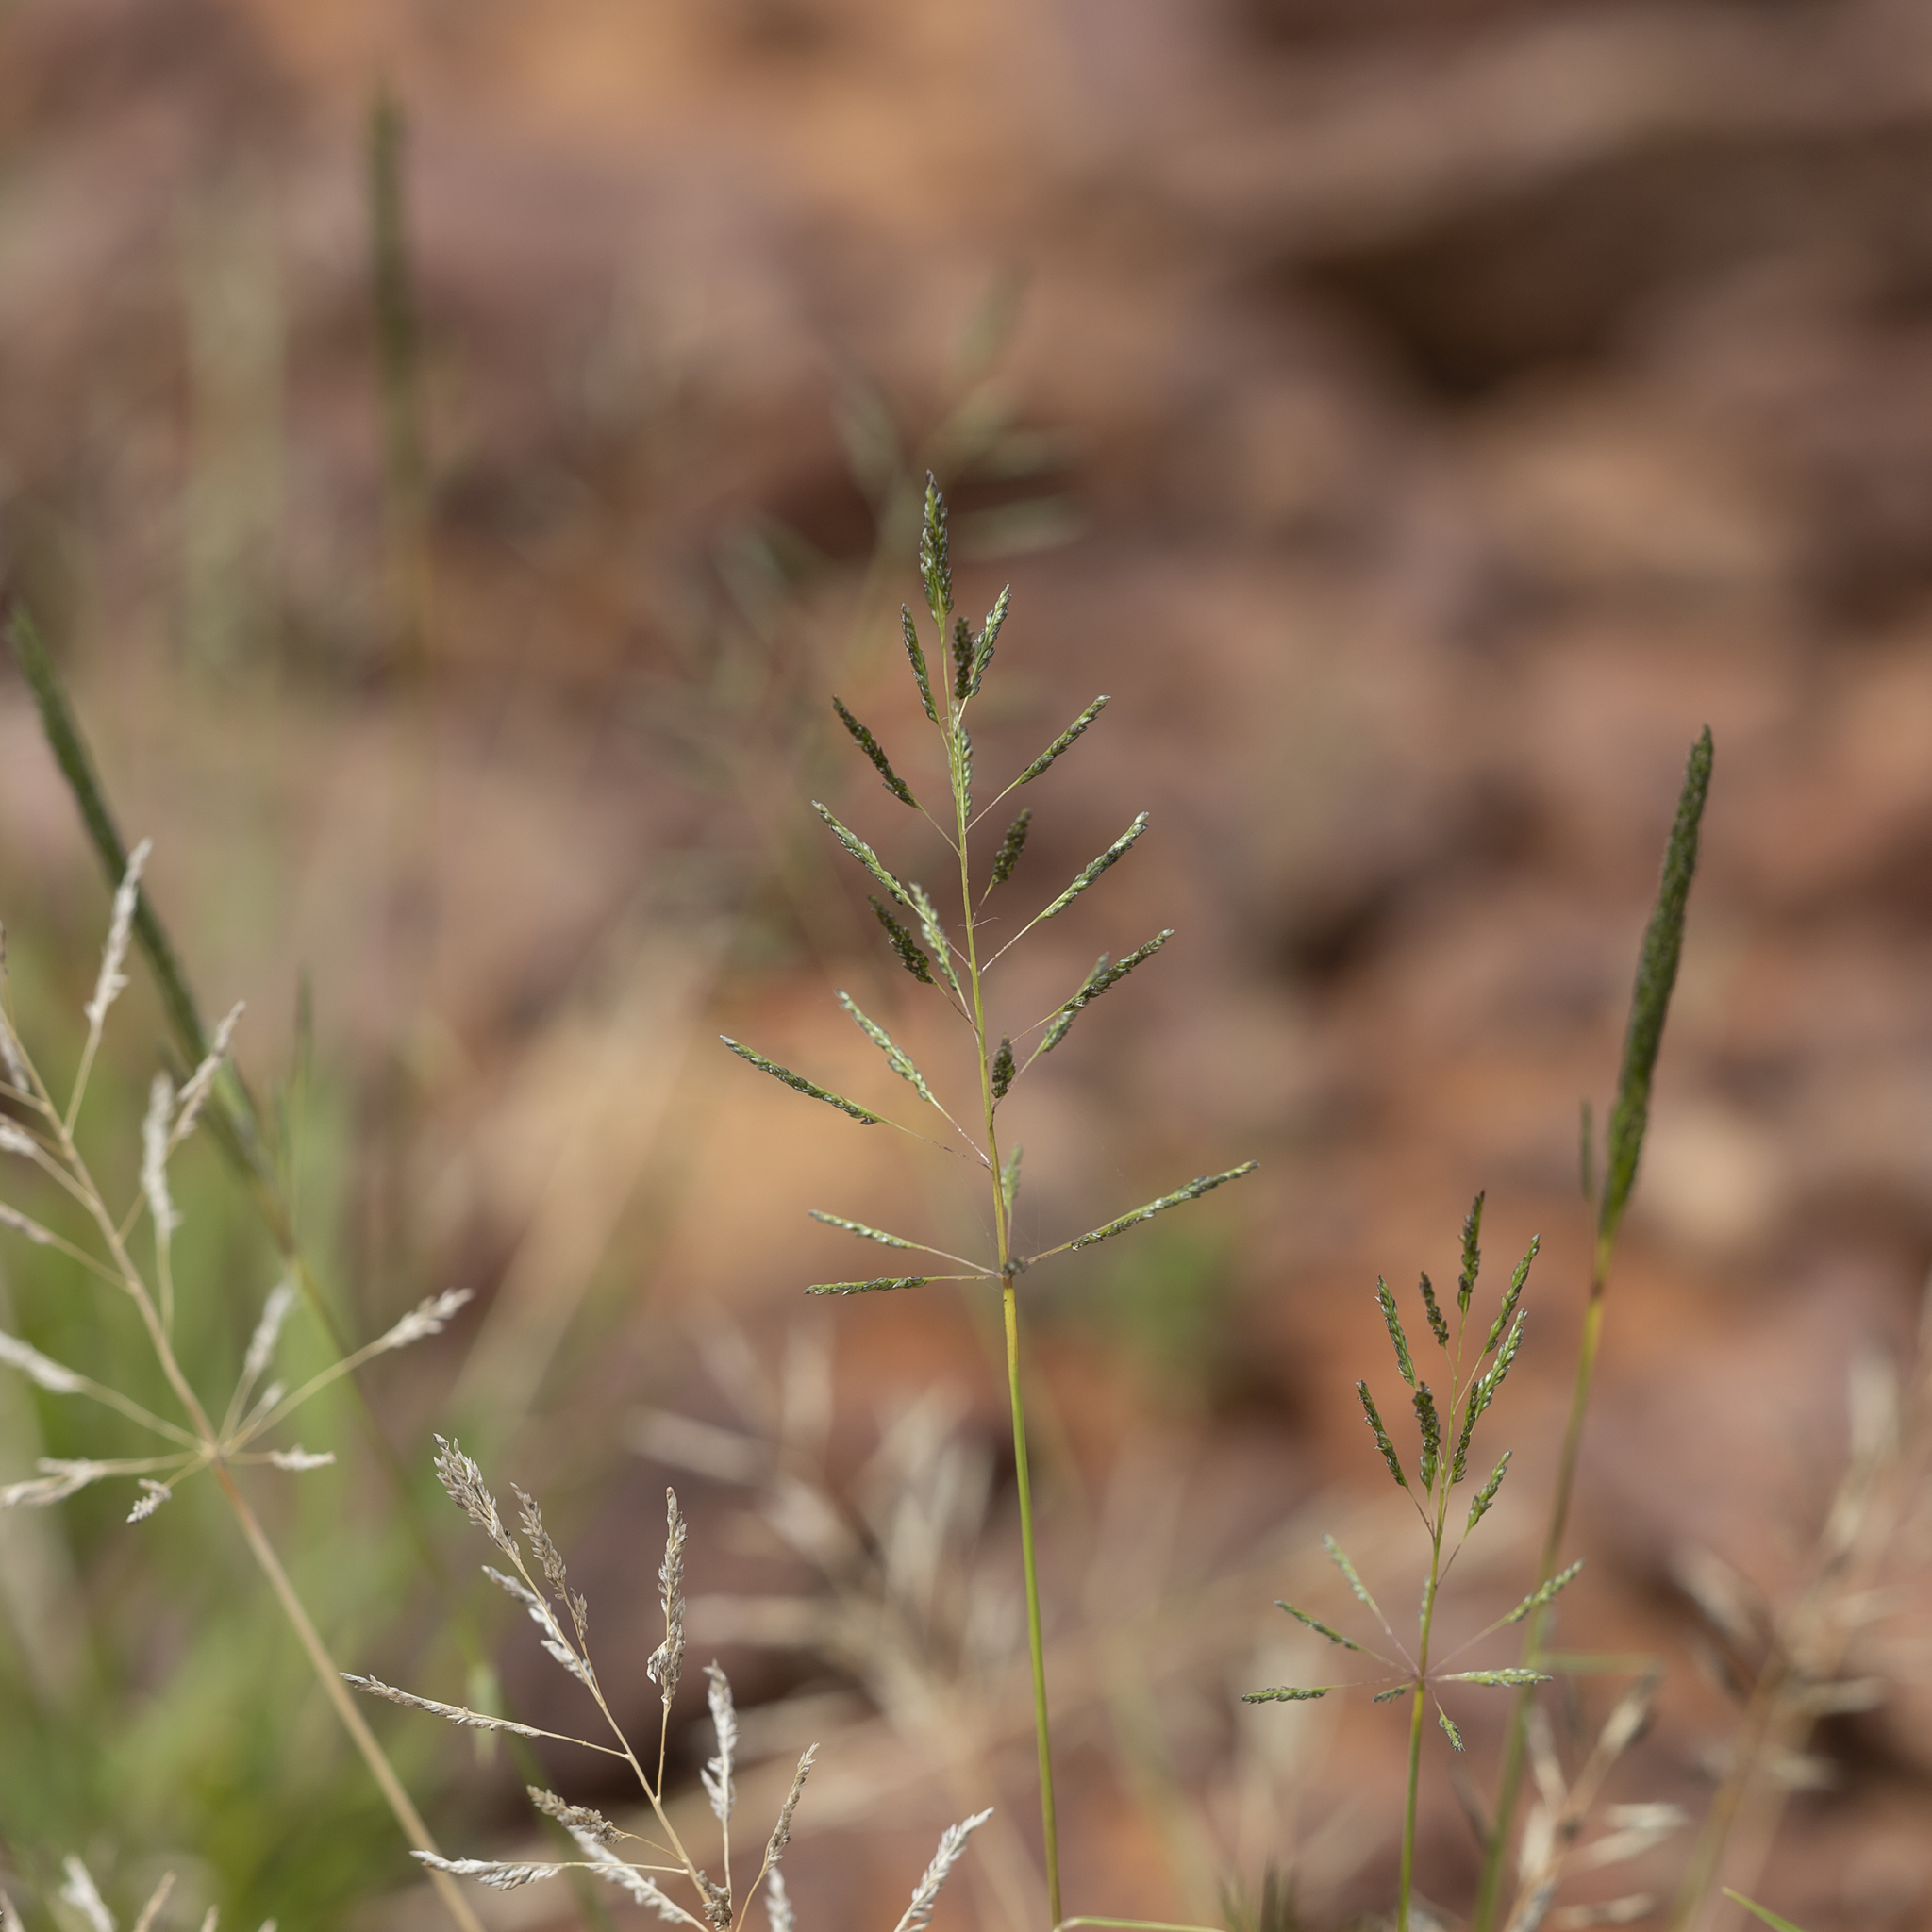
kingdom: Plantae
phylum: Tracheophyta
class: Liliopsida
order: Poales
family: Poaceae
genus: Sporobolus
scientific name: Sporobolus actinocladus
